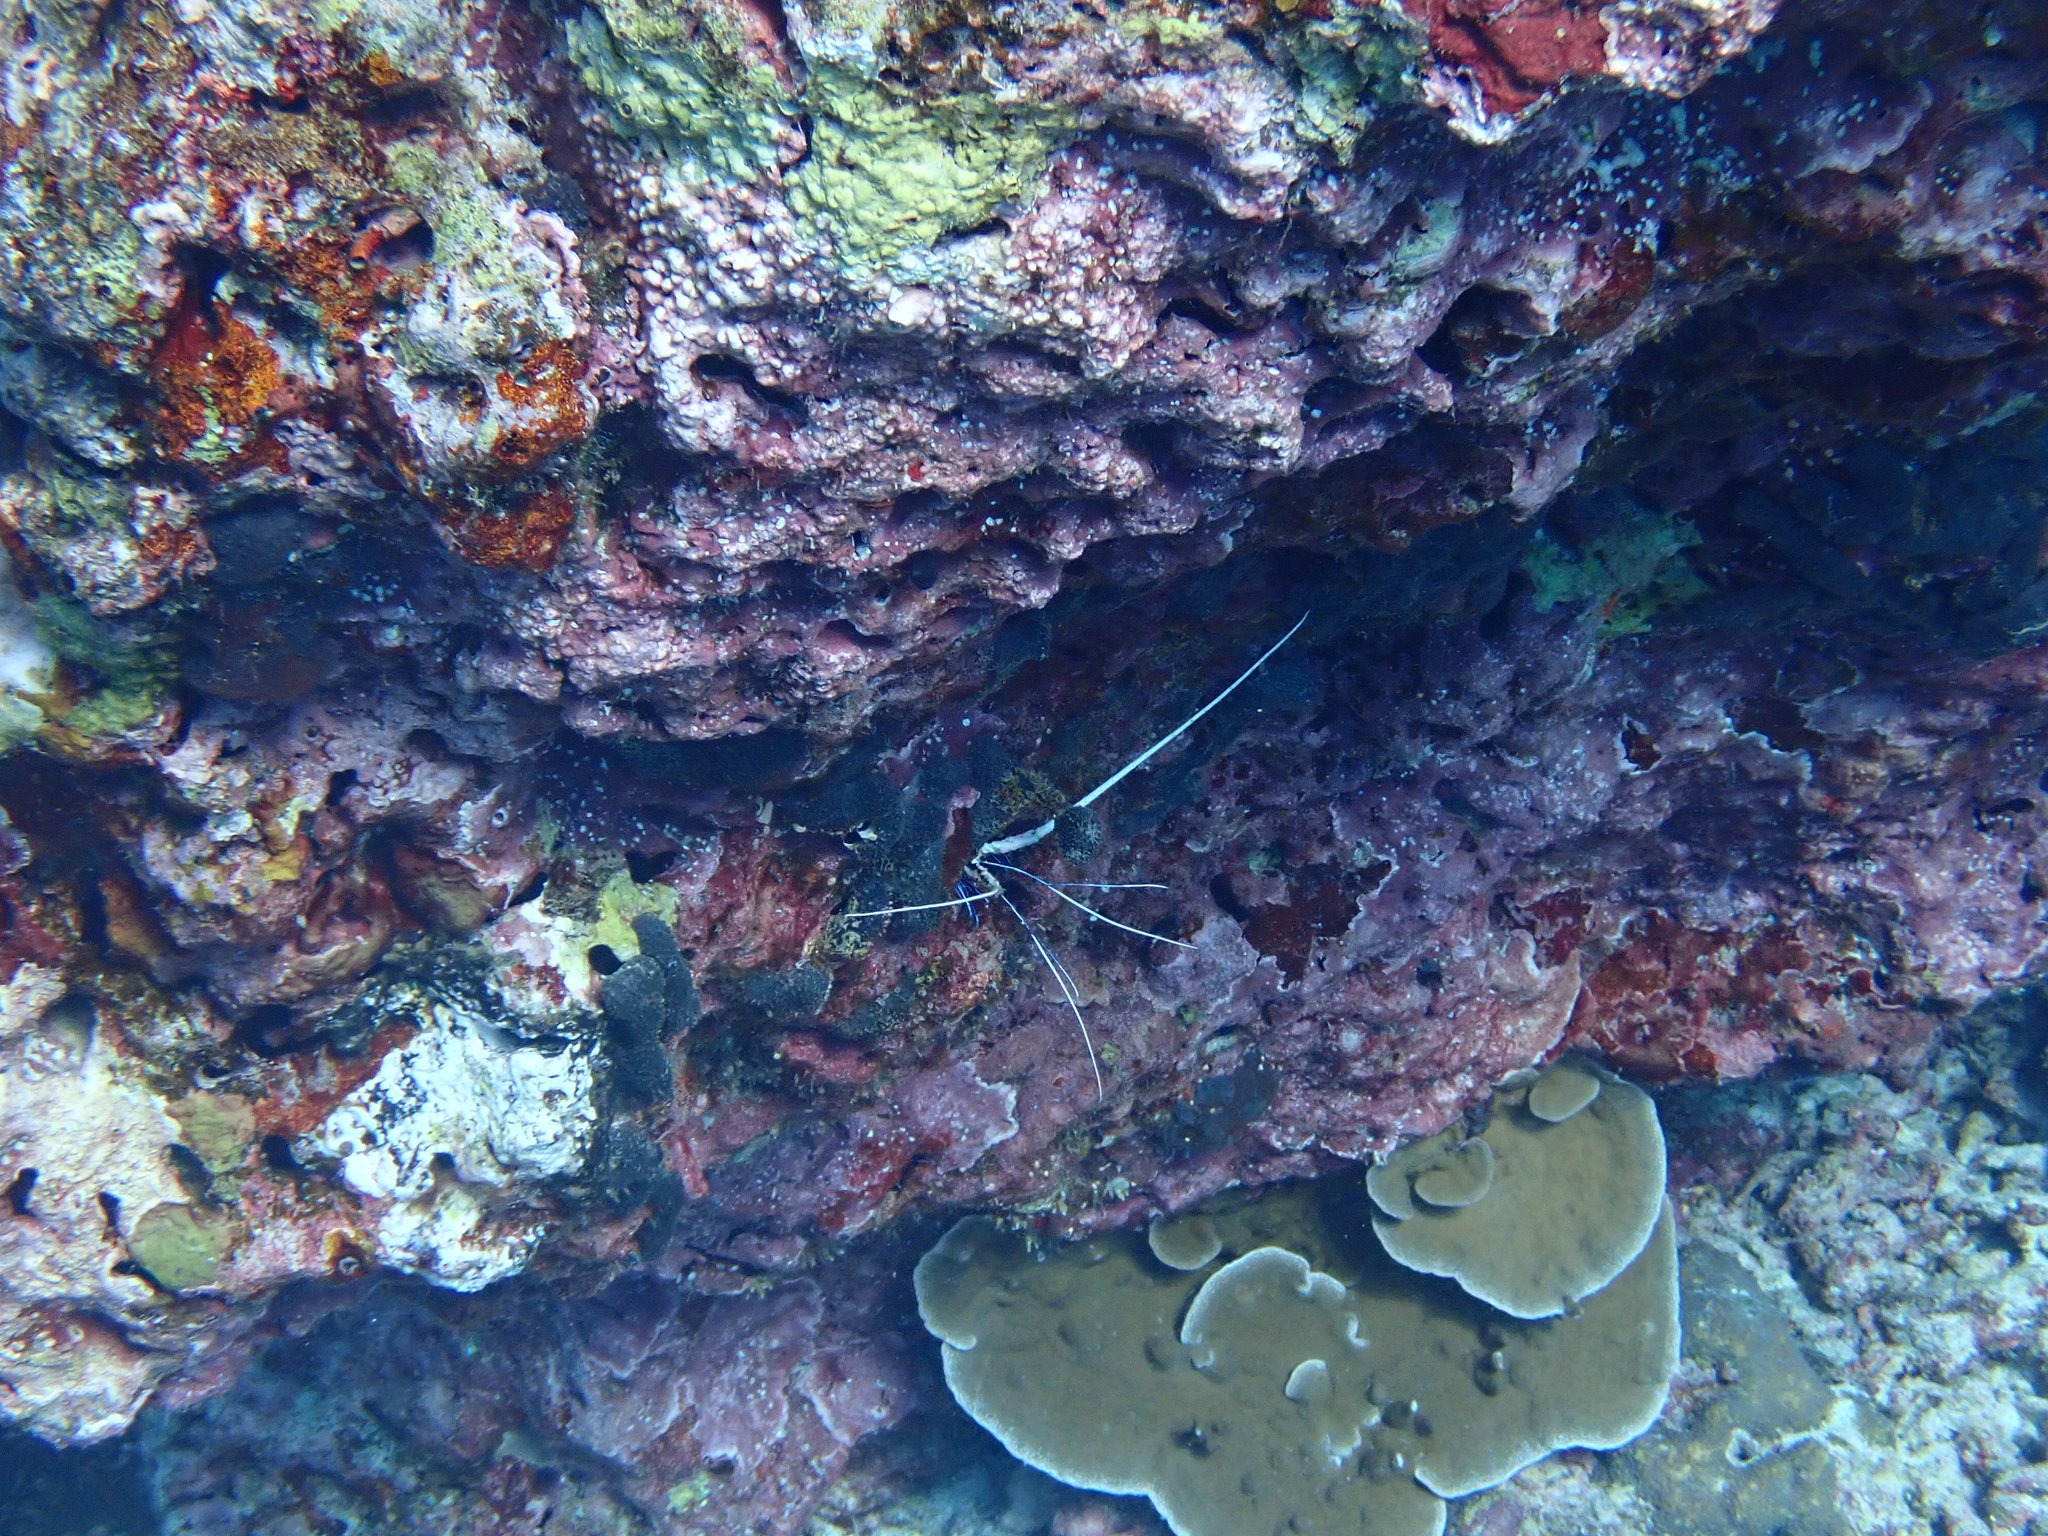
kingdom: Animalia
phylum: Arthropoda
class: Malacostraca
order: Decapoda
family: Palinuridae
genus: Panulirus
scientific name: Panulirus versicolor
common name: Painted spiny lobster
